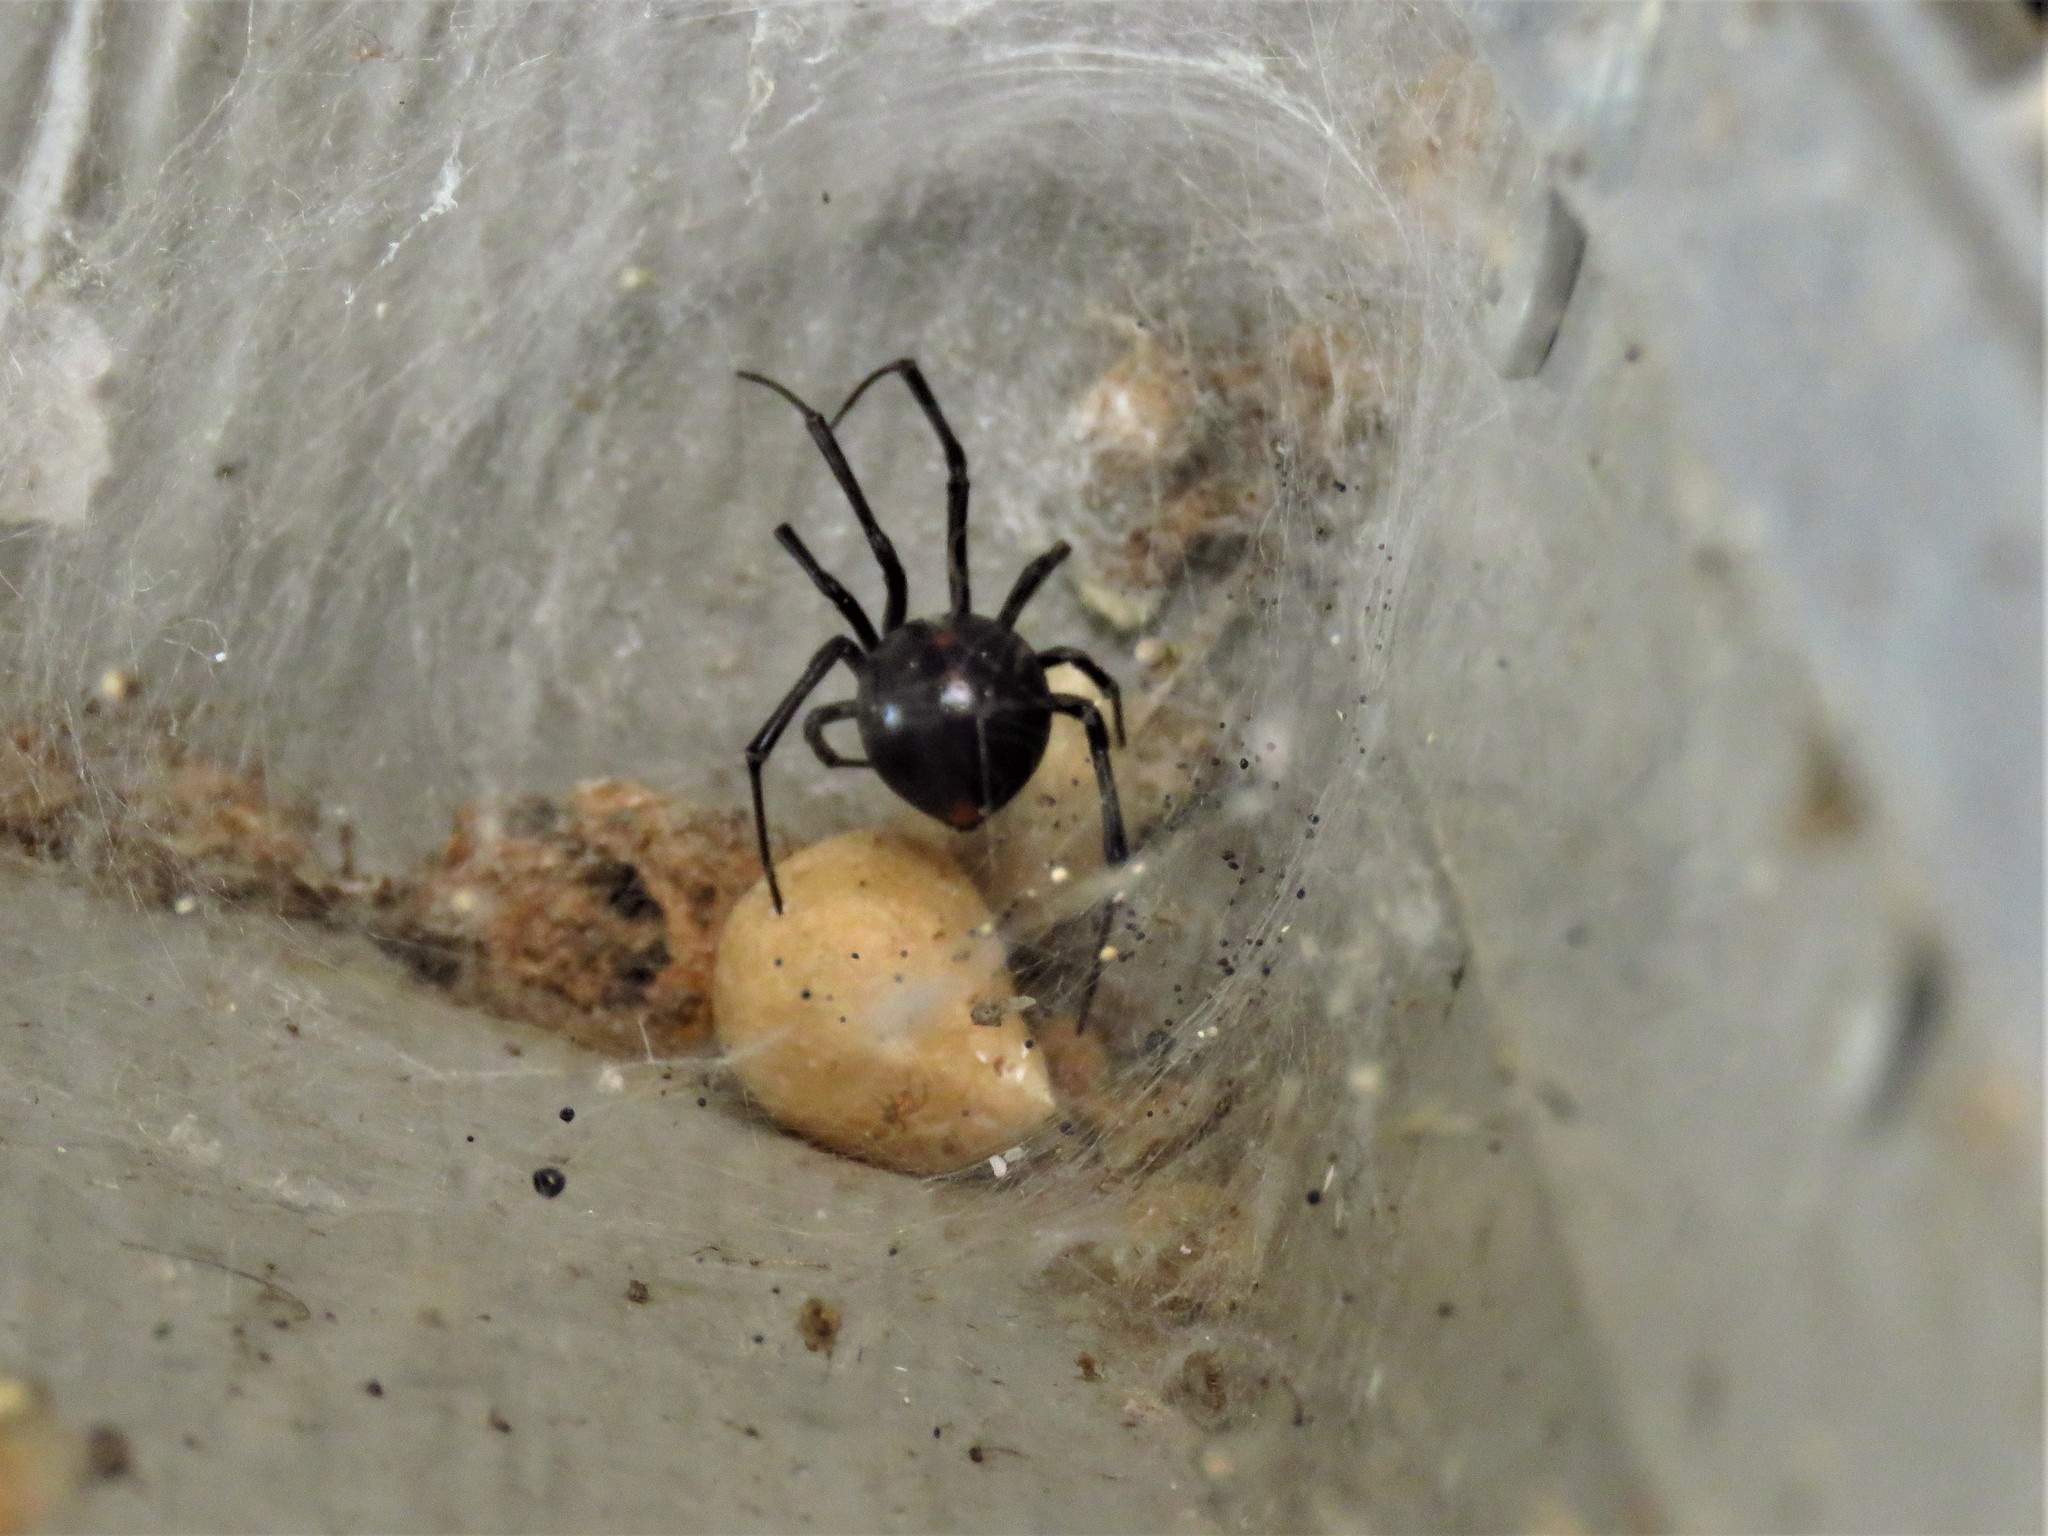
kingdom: Animalia
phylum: Arthropoda
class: Arachnida
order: Araneae
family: Theridiidae
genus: Latrodectus
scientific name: Latrodectus mactans
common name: Cobweb spiders
